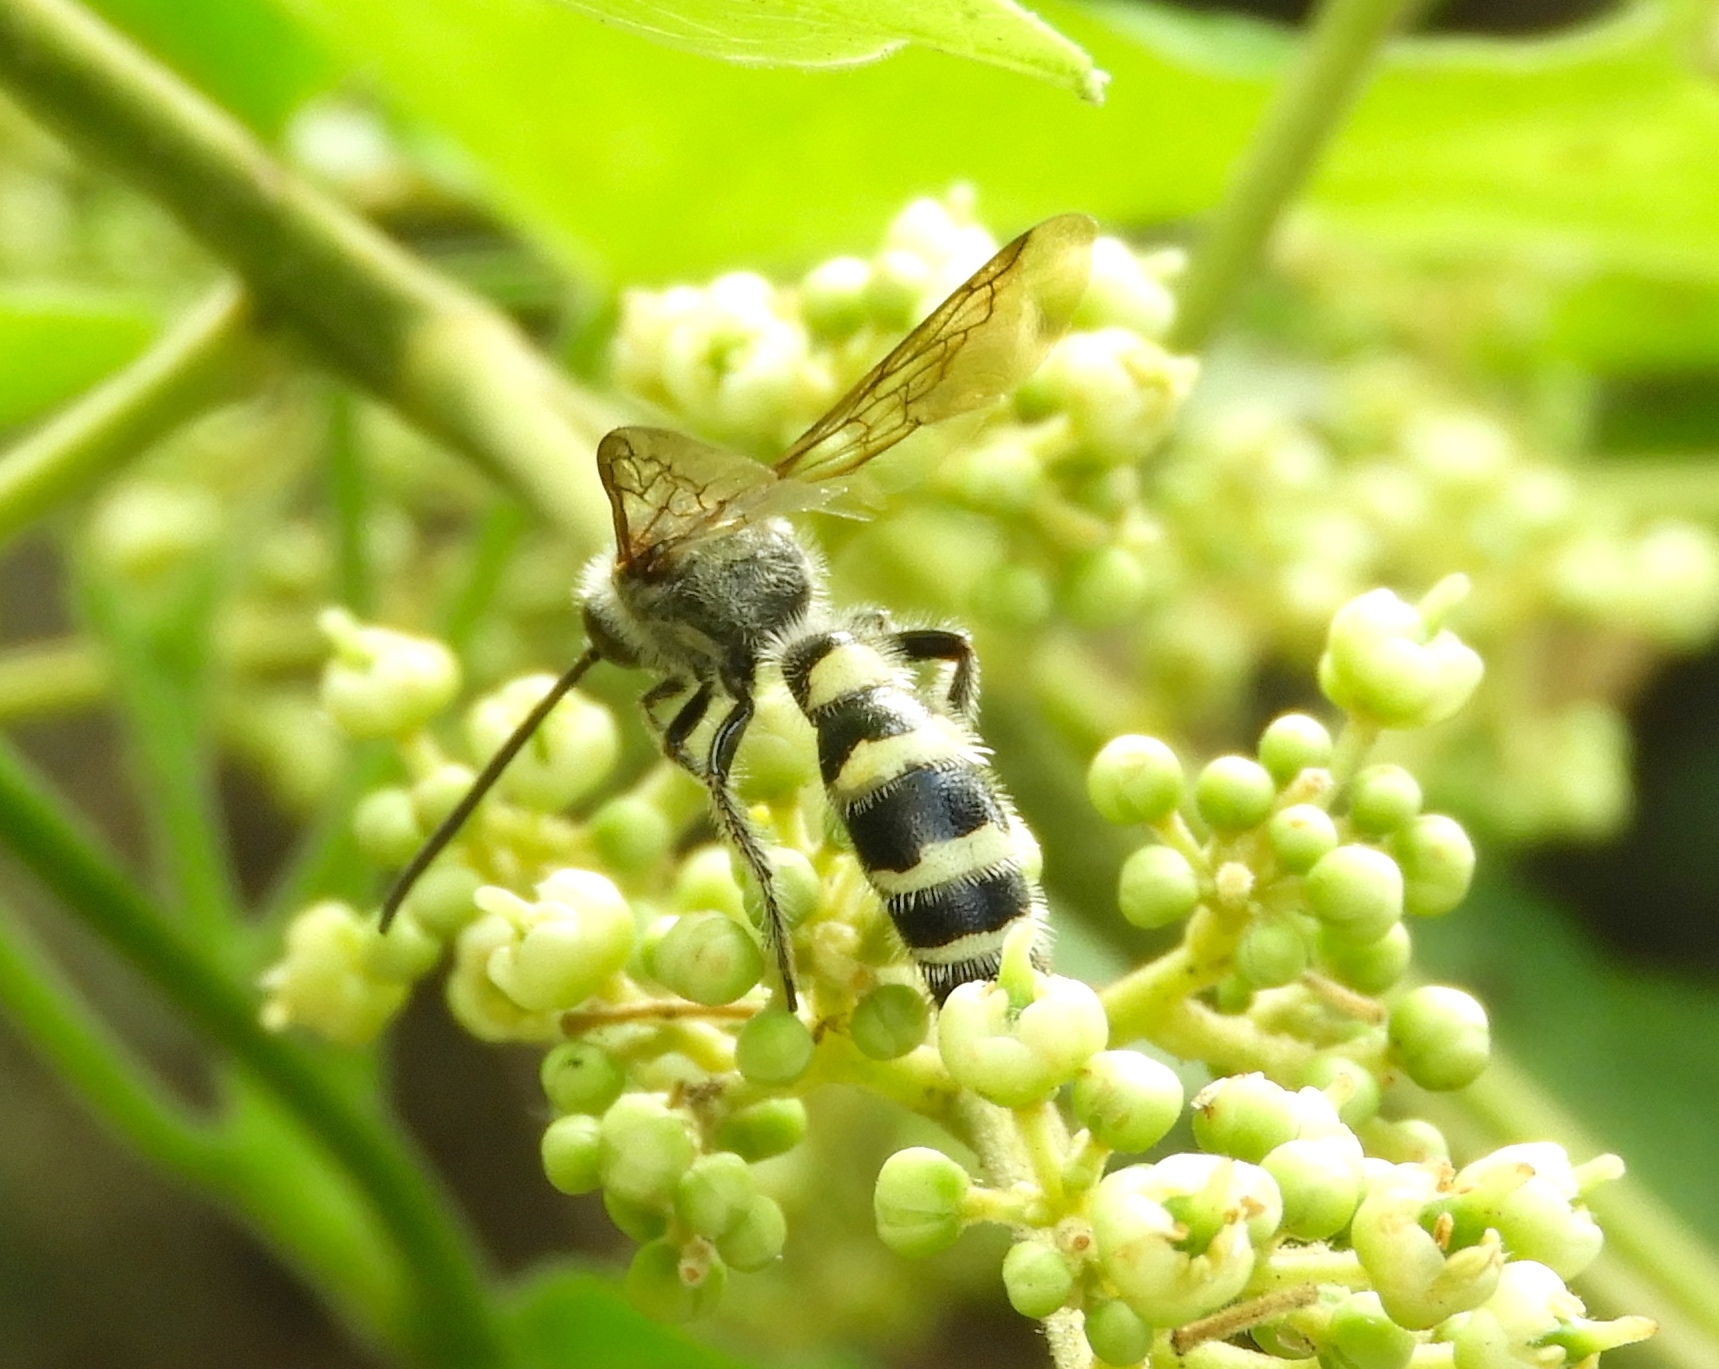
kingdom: Animalia
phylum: Arthropoda
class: Insecta
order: Hymenoptera
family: Scoliidae
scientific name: Scoliidae
